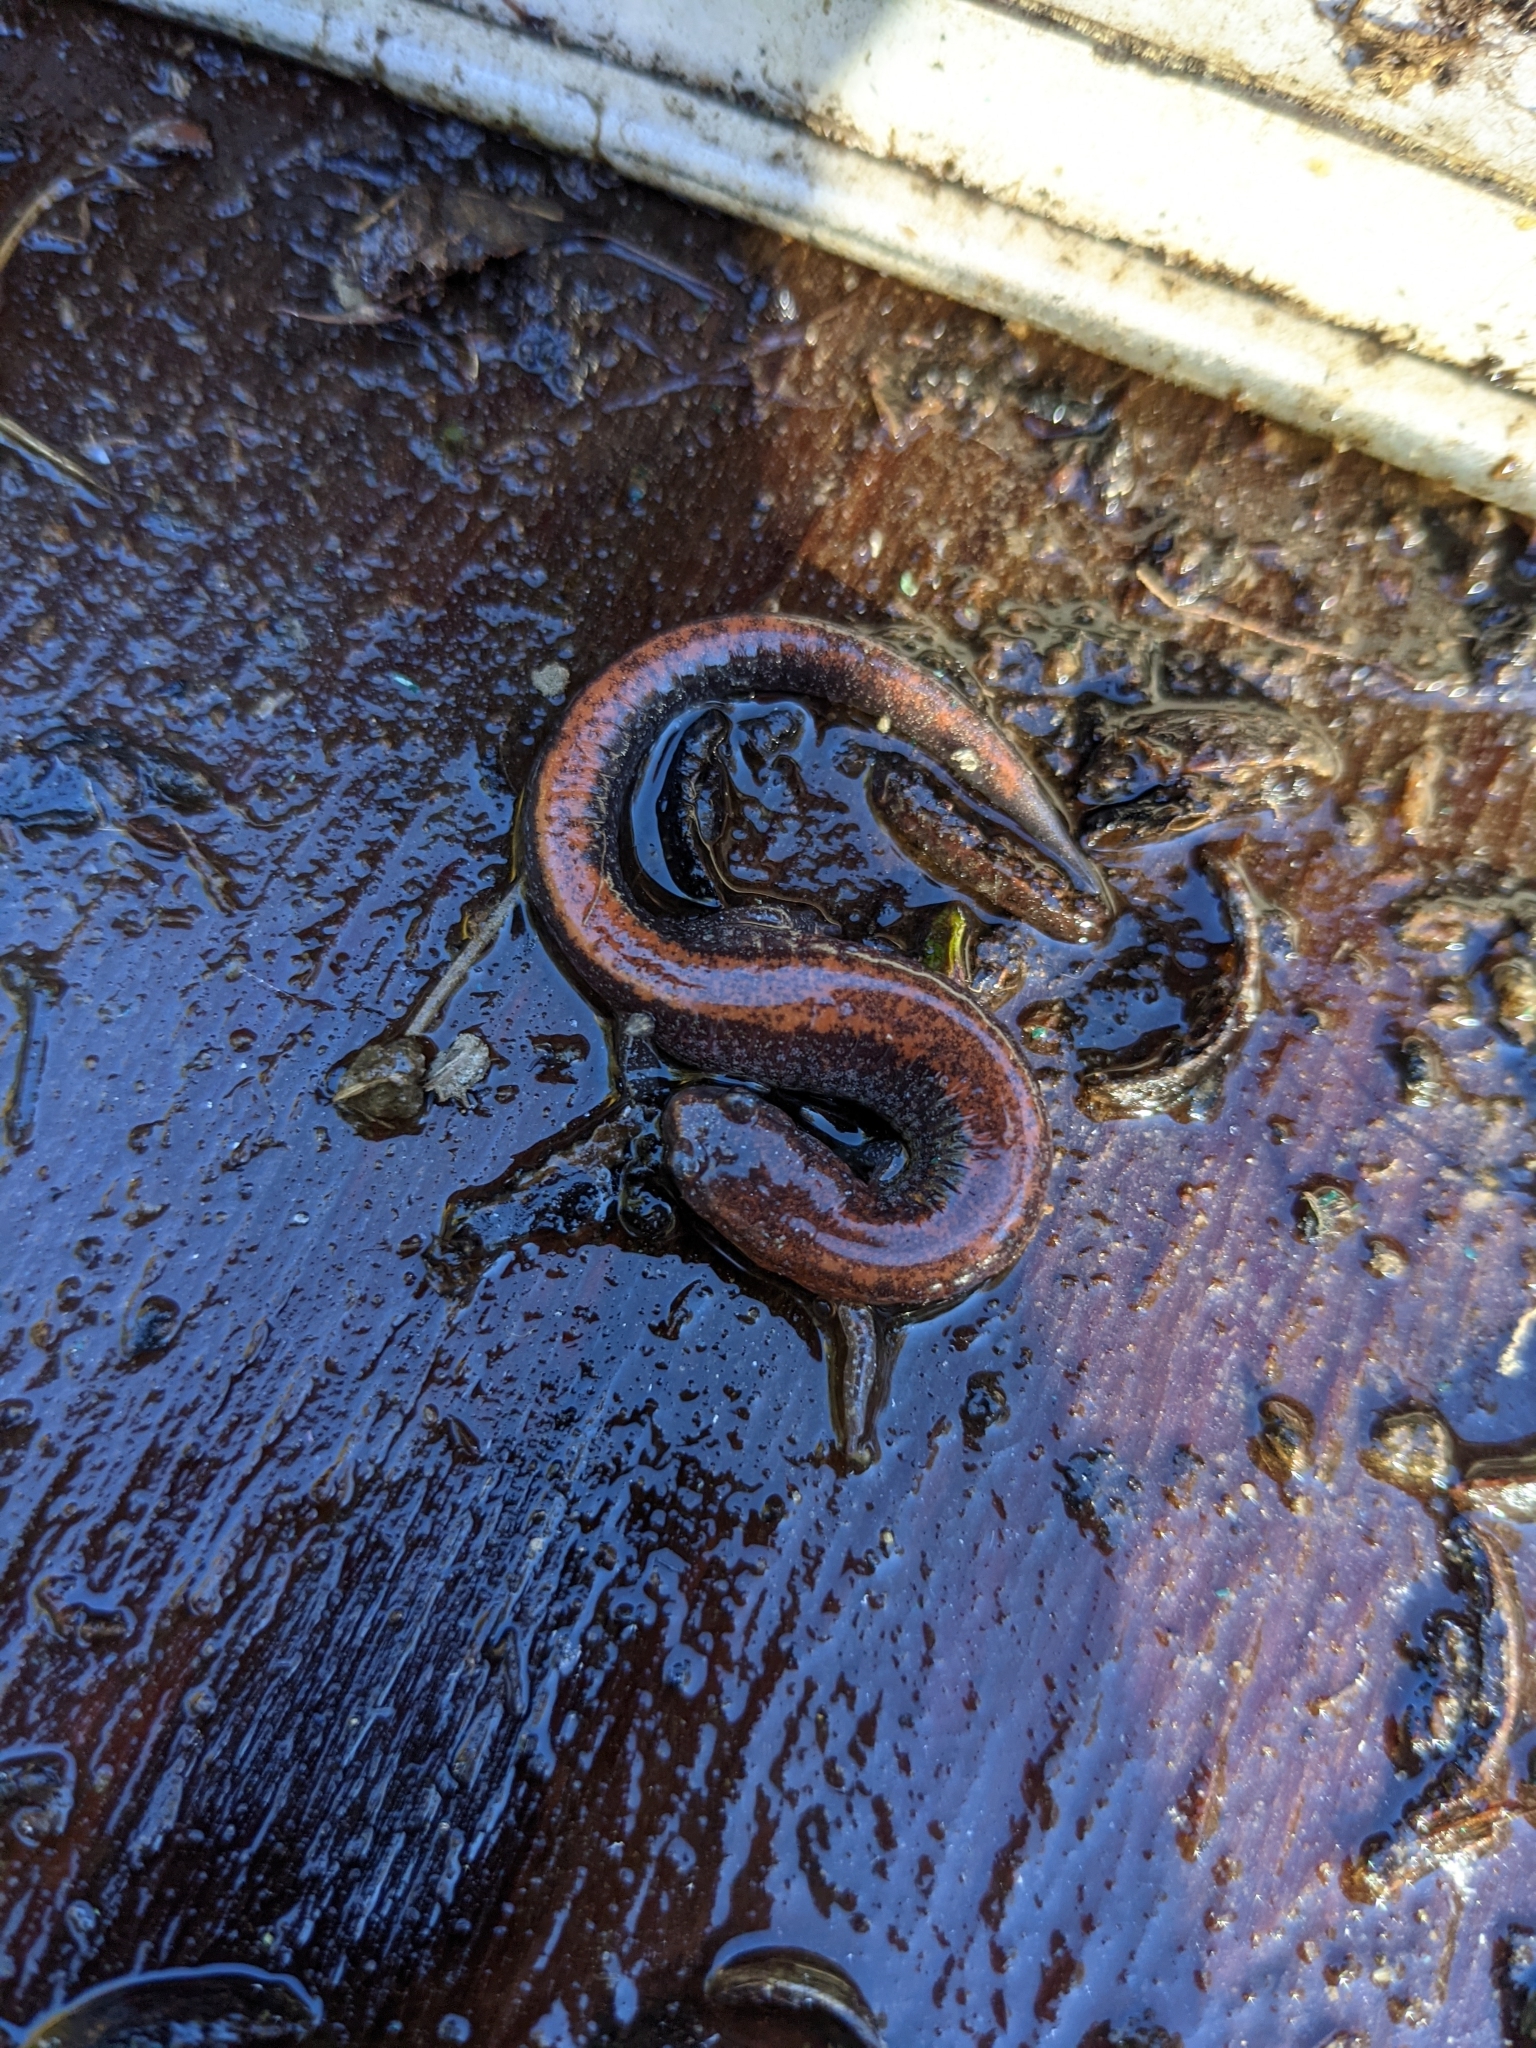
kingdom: Animalia
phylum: Chordata
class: Amphibia
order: Caudata
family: Plethodontidae
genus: Plethodon
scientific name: Plethodon cinereus
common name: Redback salamander
